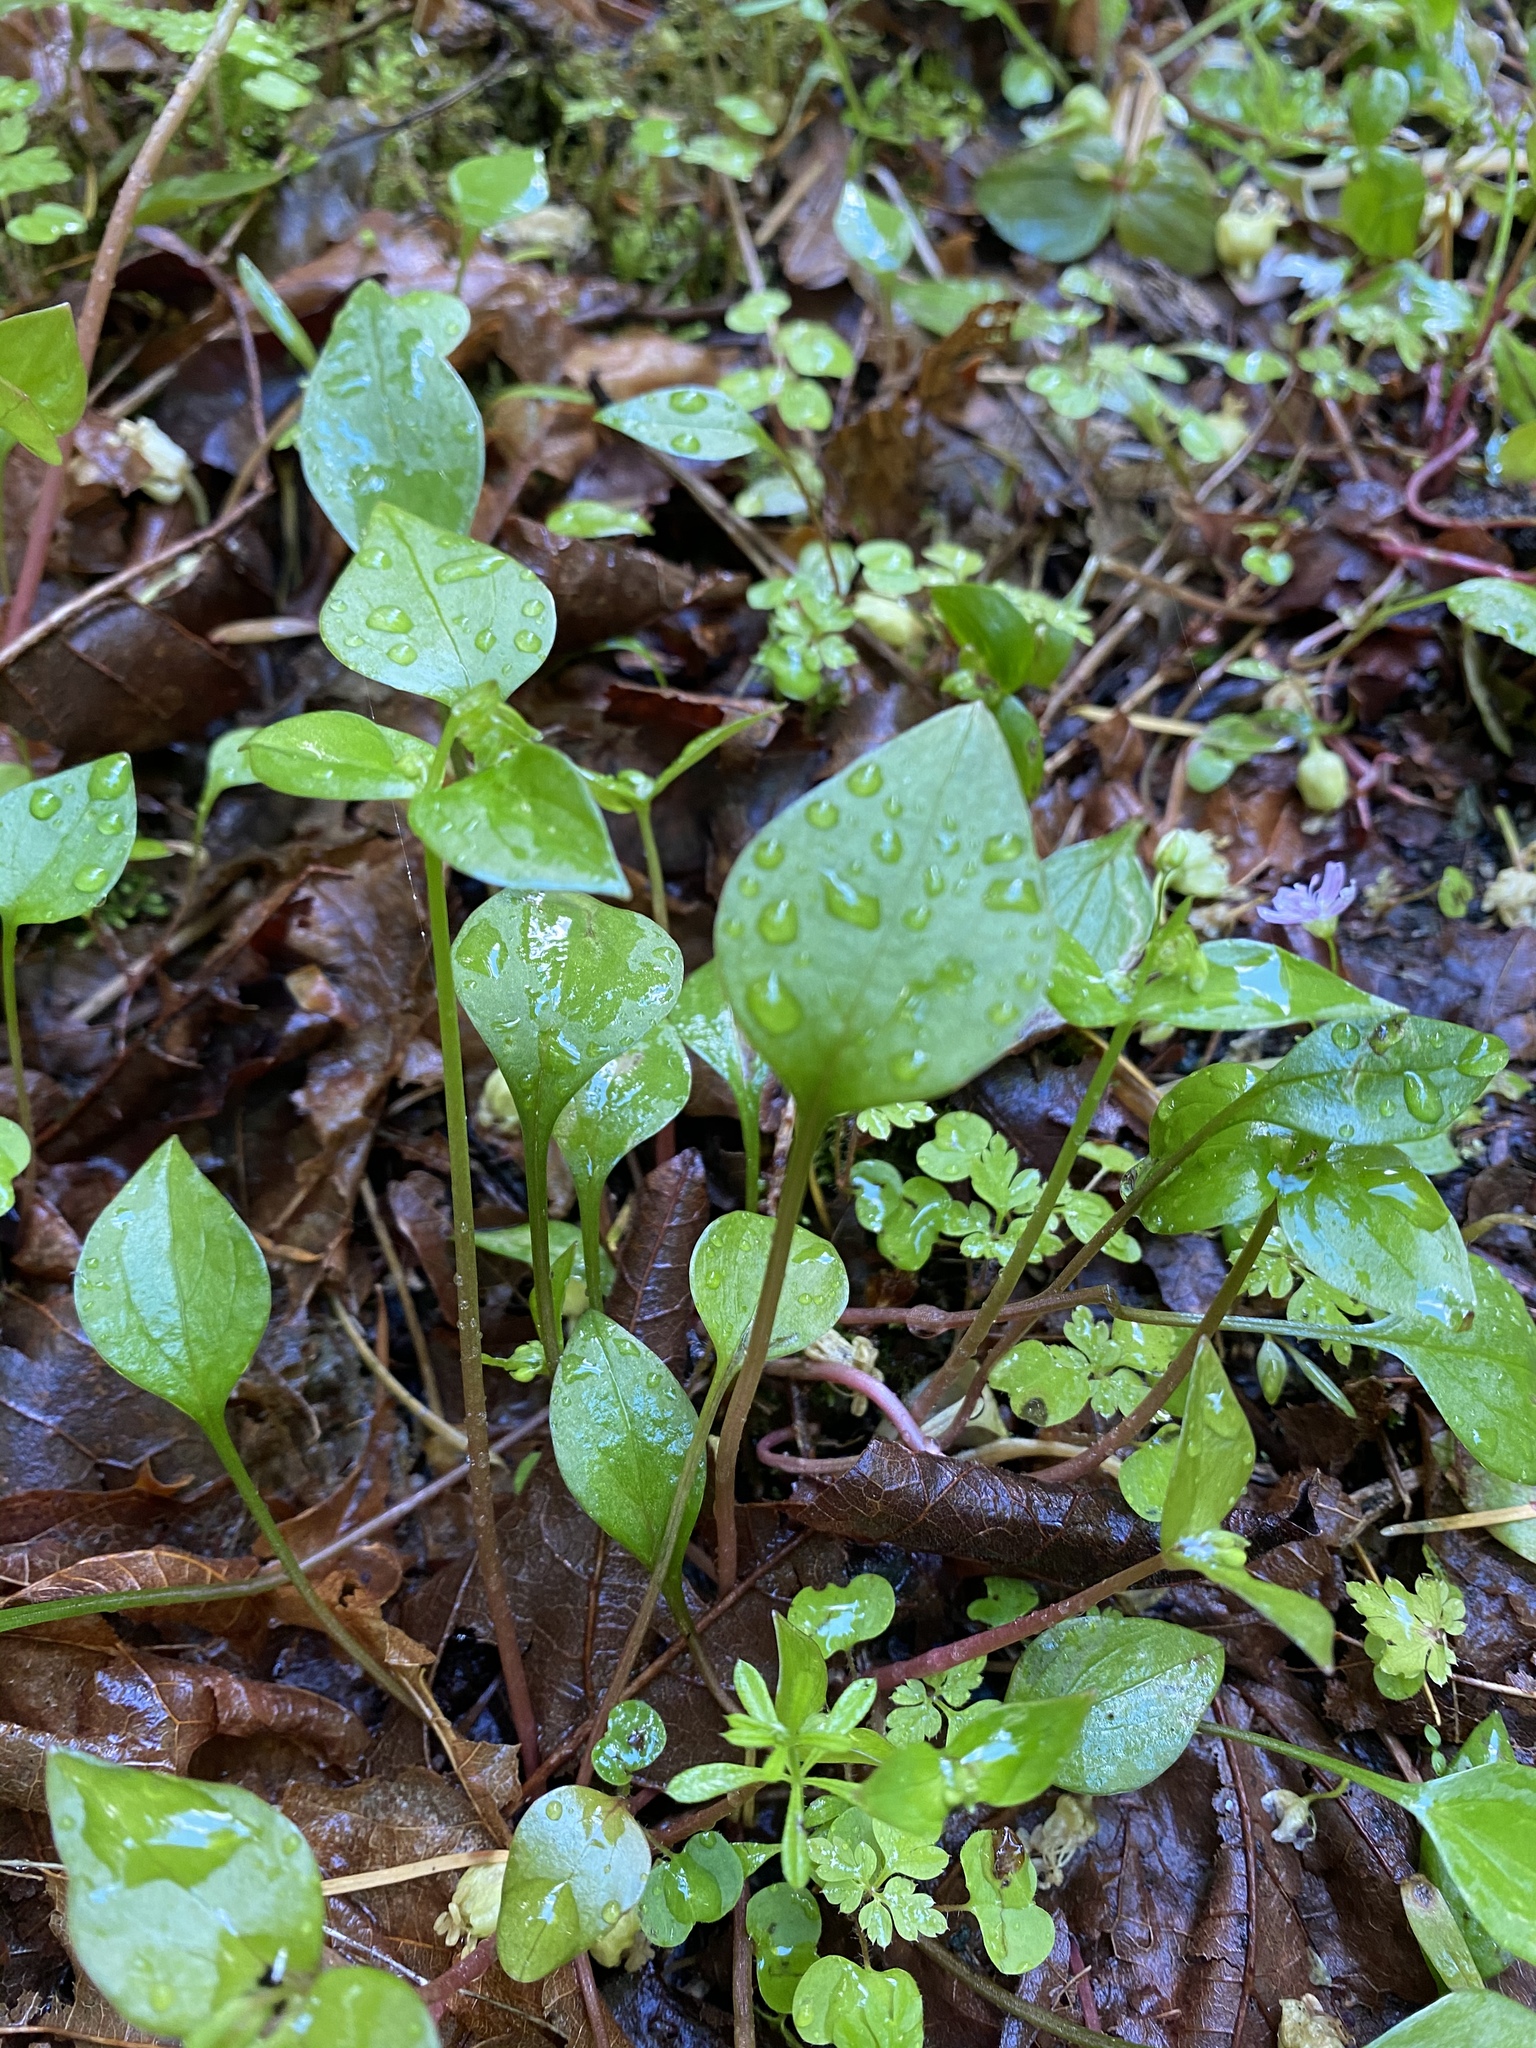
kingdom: Plantae
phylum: Tracheophyta
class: Magnoliopsida
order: Caryophyllales
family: Montiaceae
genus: Claytonia
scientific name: Claytonia sibirica
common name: Pink purslane
